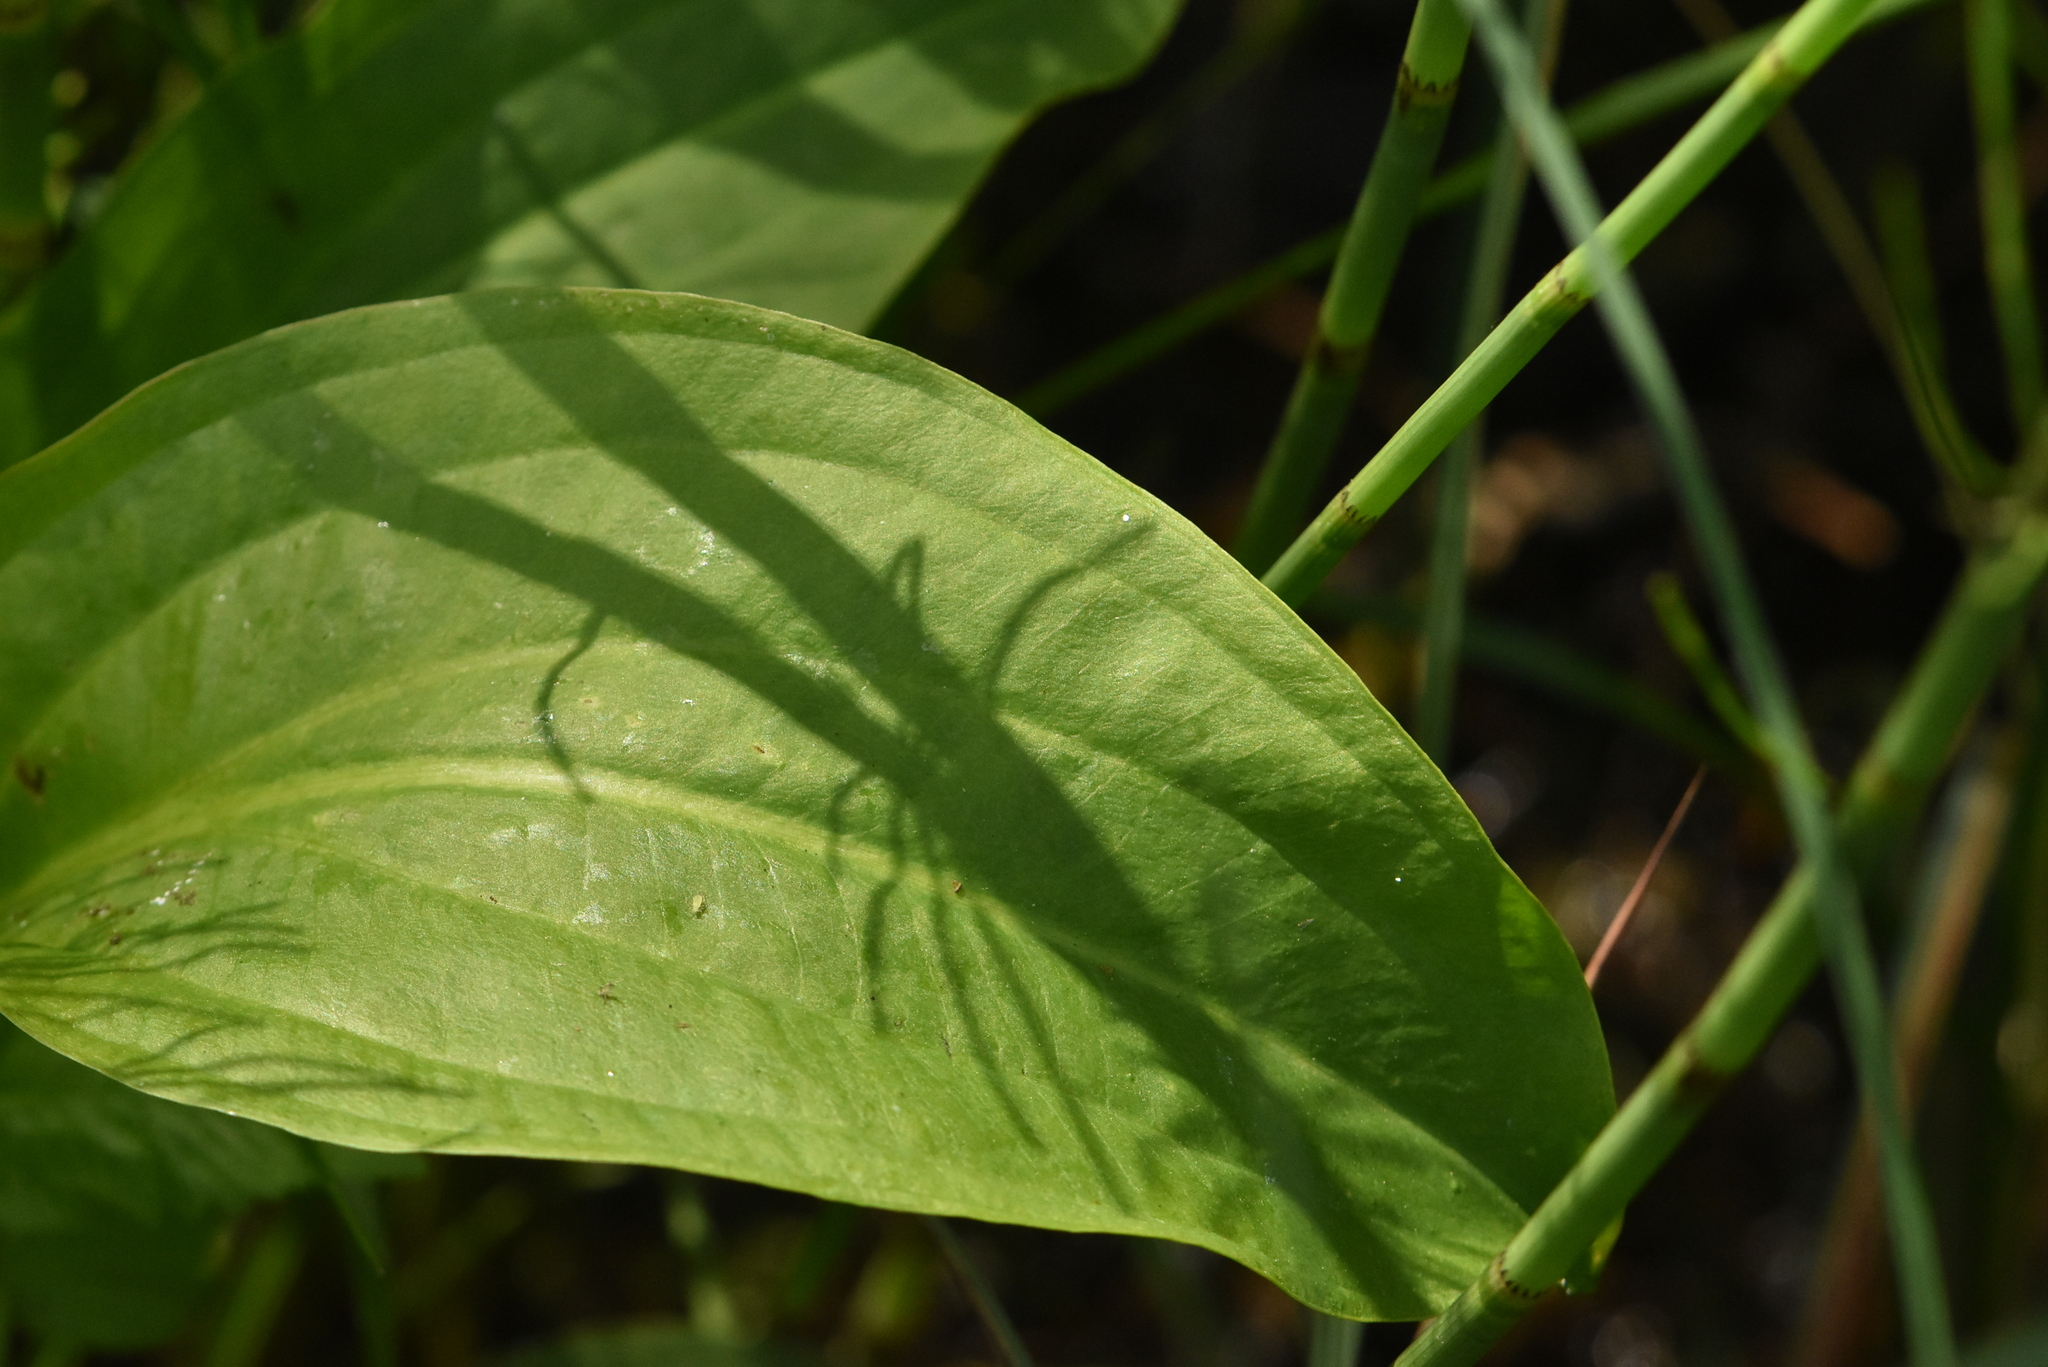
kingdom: Plantae
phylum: Tracheophyta
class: Liliopsida
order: Alismatales
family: Alismataceae
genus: Alisma
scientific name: Alisma plantago-aquatica
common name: Water-plantain
